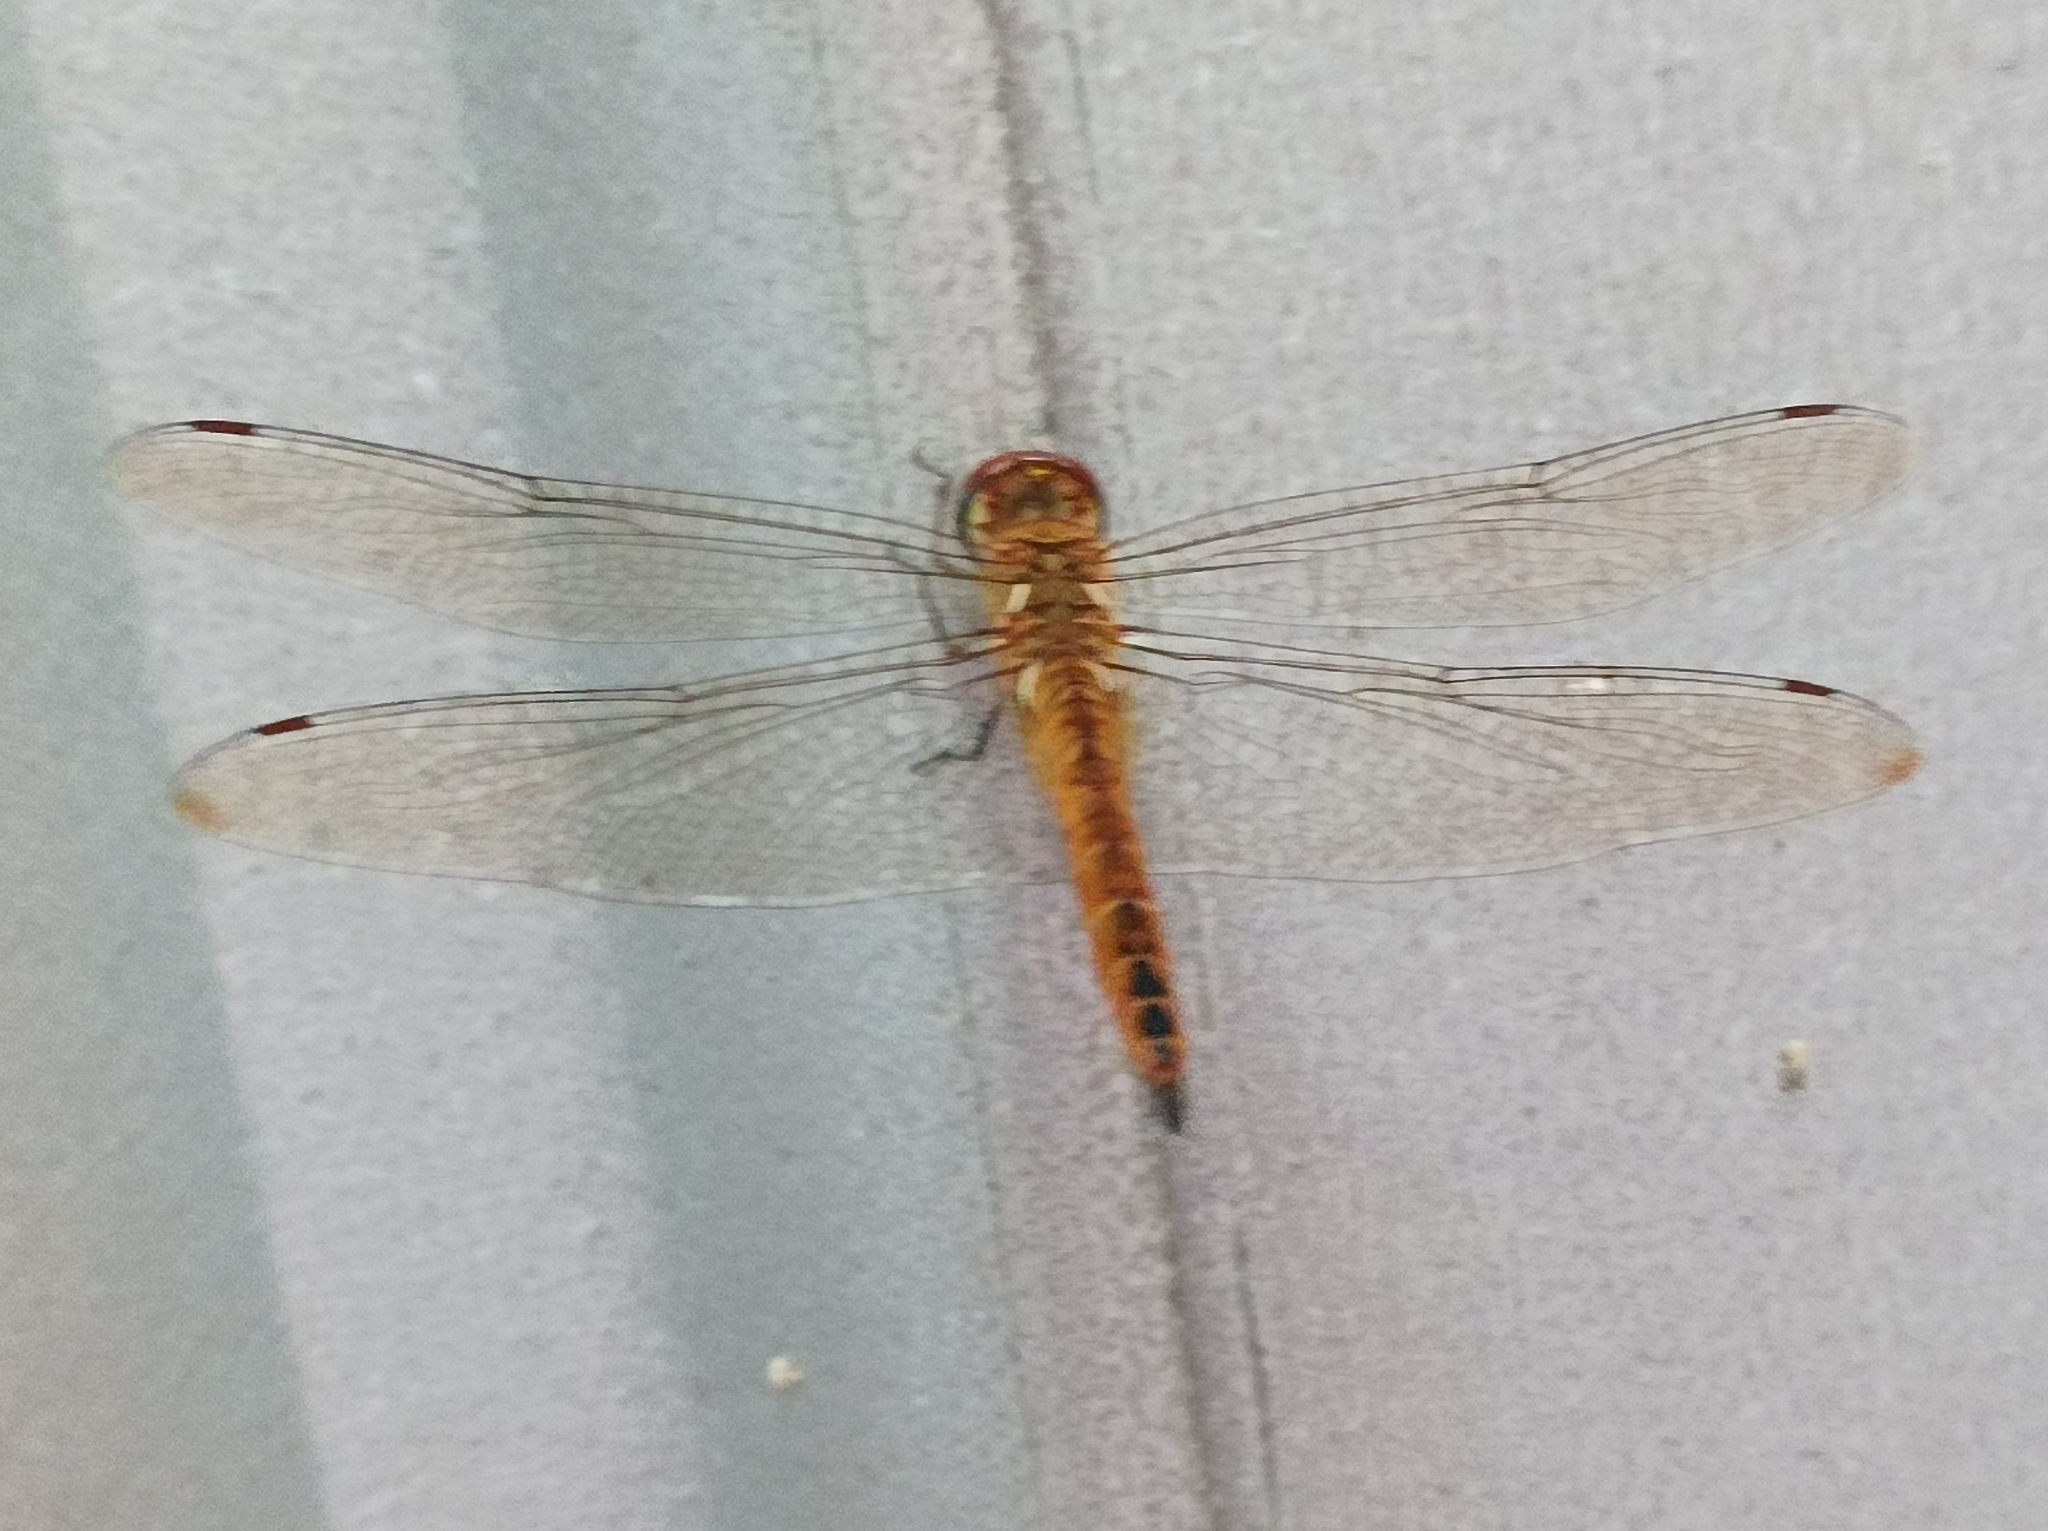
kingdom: Animalia
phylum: Arthropoda
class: Insecta
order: Odonata
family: Libellulidae
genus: Pantala
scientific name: Pantala flavescens
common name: Wandering glider
